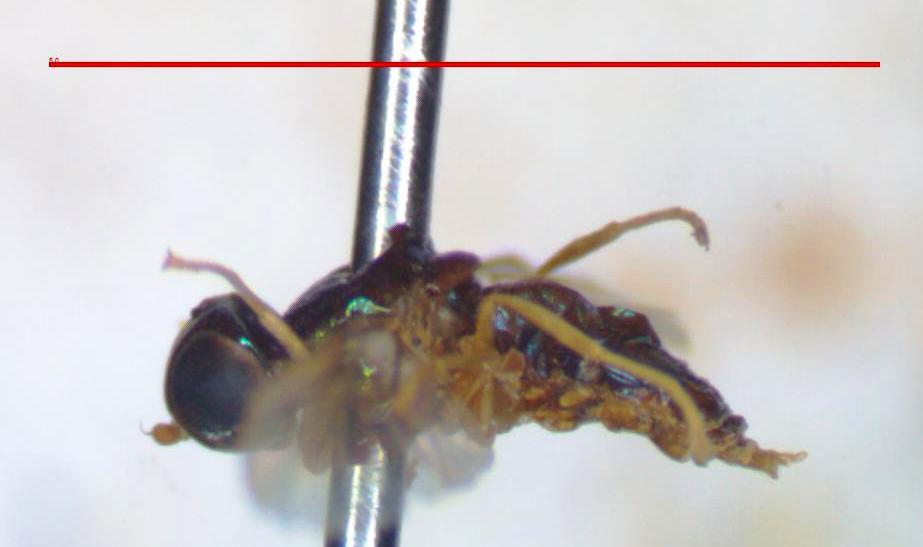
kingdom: Animalia
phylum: Arthropoda
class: Insecta
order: Diptera
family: Stratiomyidae
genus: Microchrysa
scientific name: Microchrysa bicolor
